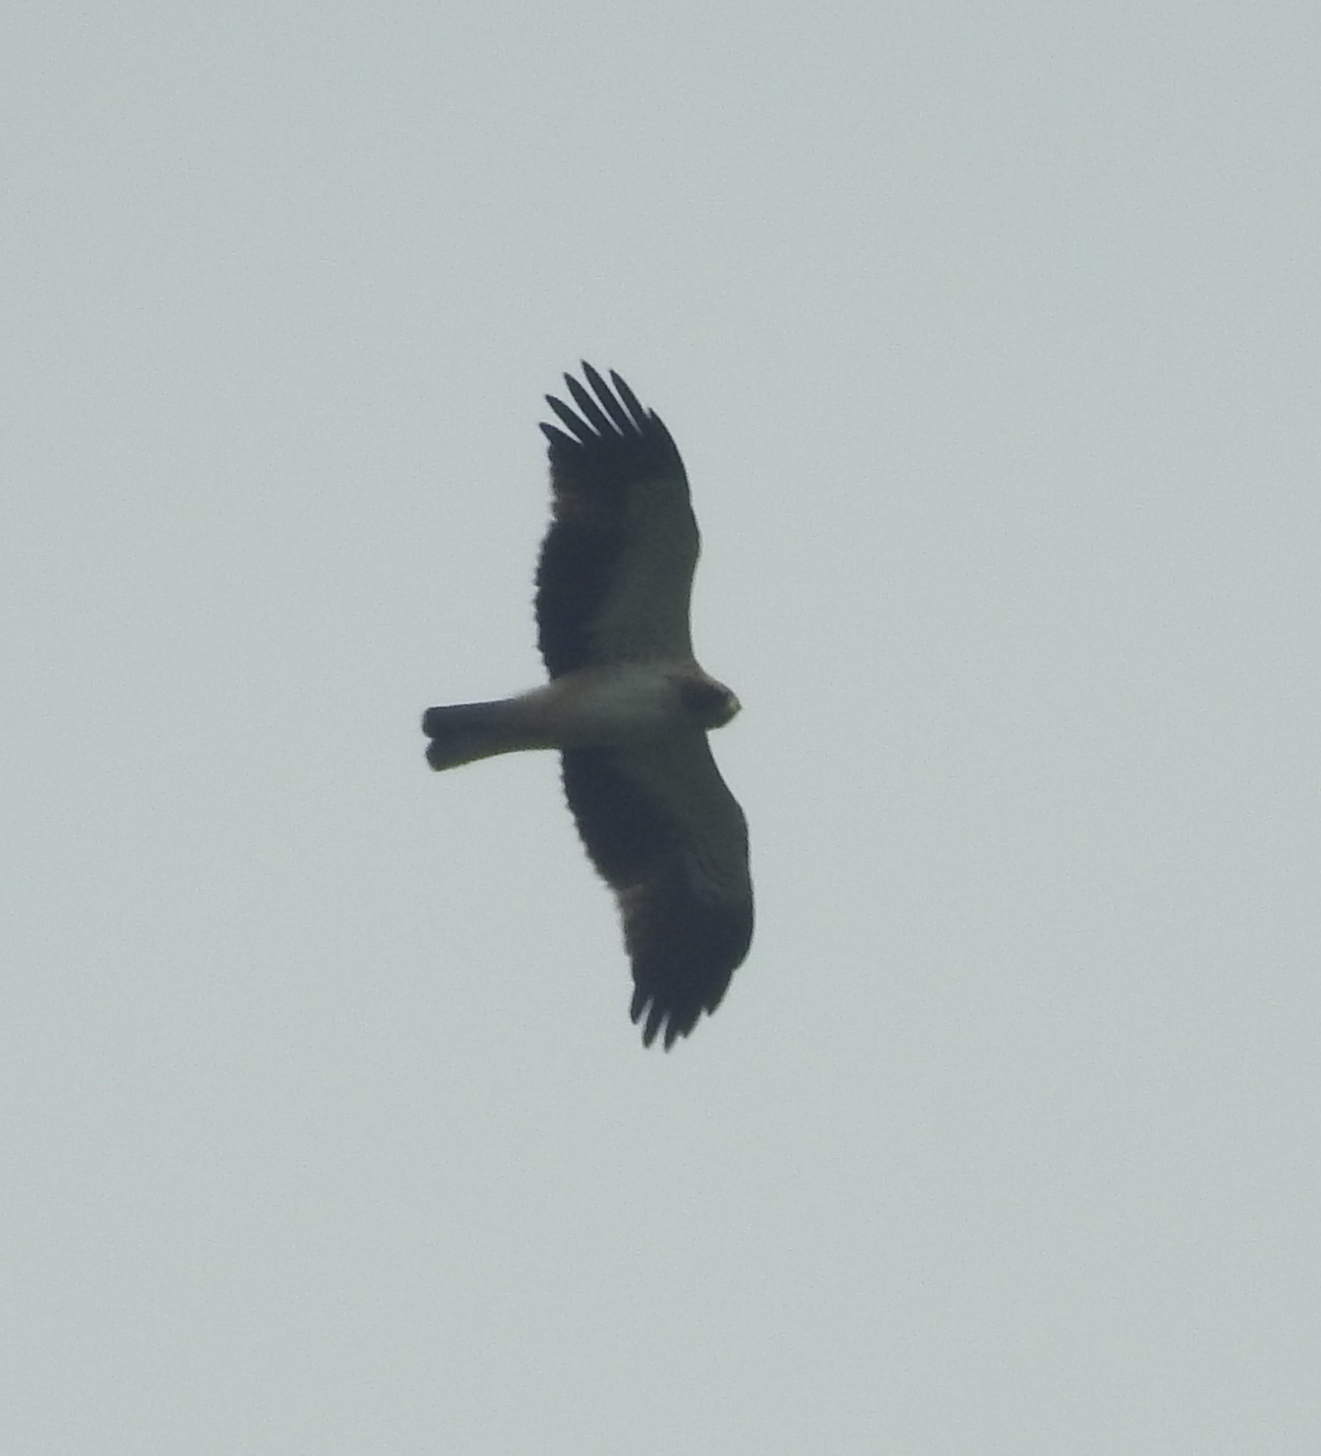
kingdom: Animalia
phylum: Chordata
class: Aves
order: Accipitriformes
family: Accipitridae
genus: Hieraaetus
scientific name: Hieraaetus pennatus
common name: Booted eagle
